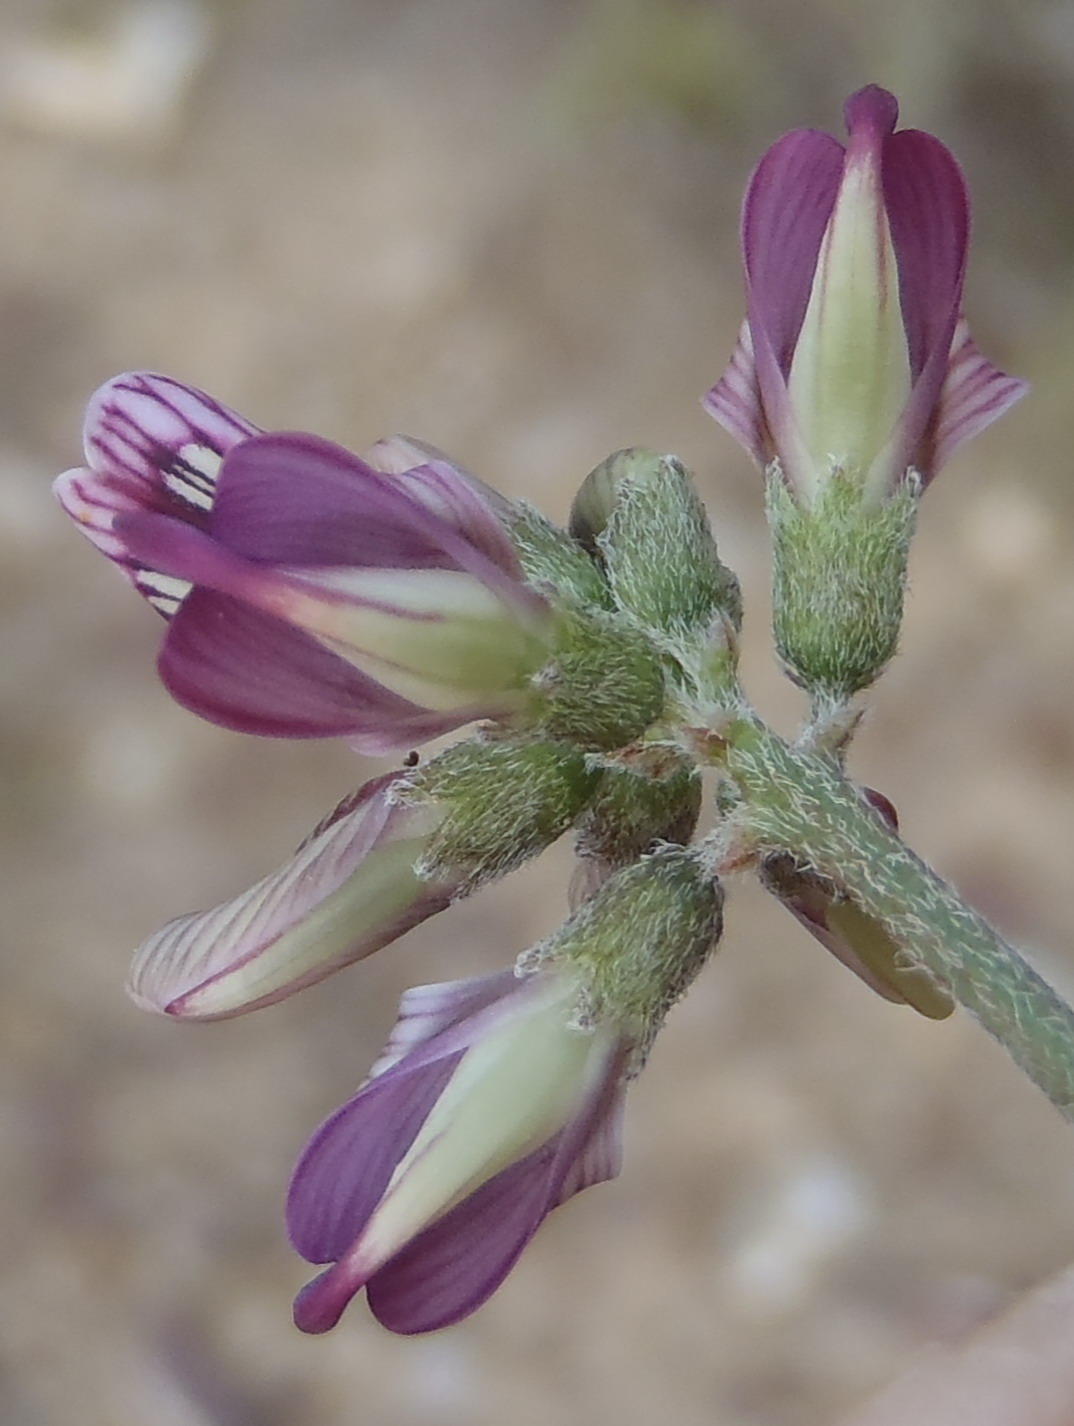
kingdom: Plantae
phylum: Tracheophyta
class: Magnoliopsida
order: Fabales
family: Fabaceae
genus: Lessertia
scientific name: Lessertia annularis
